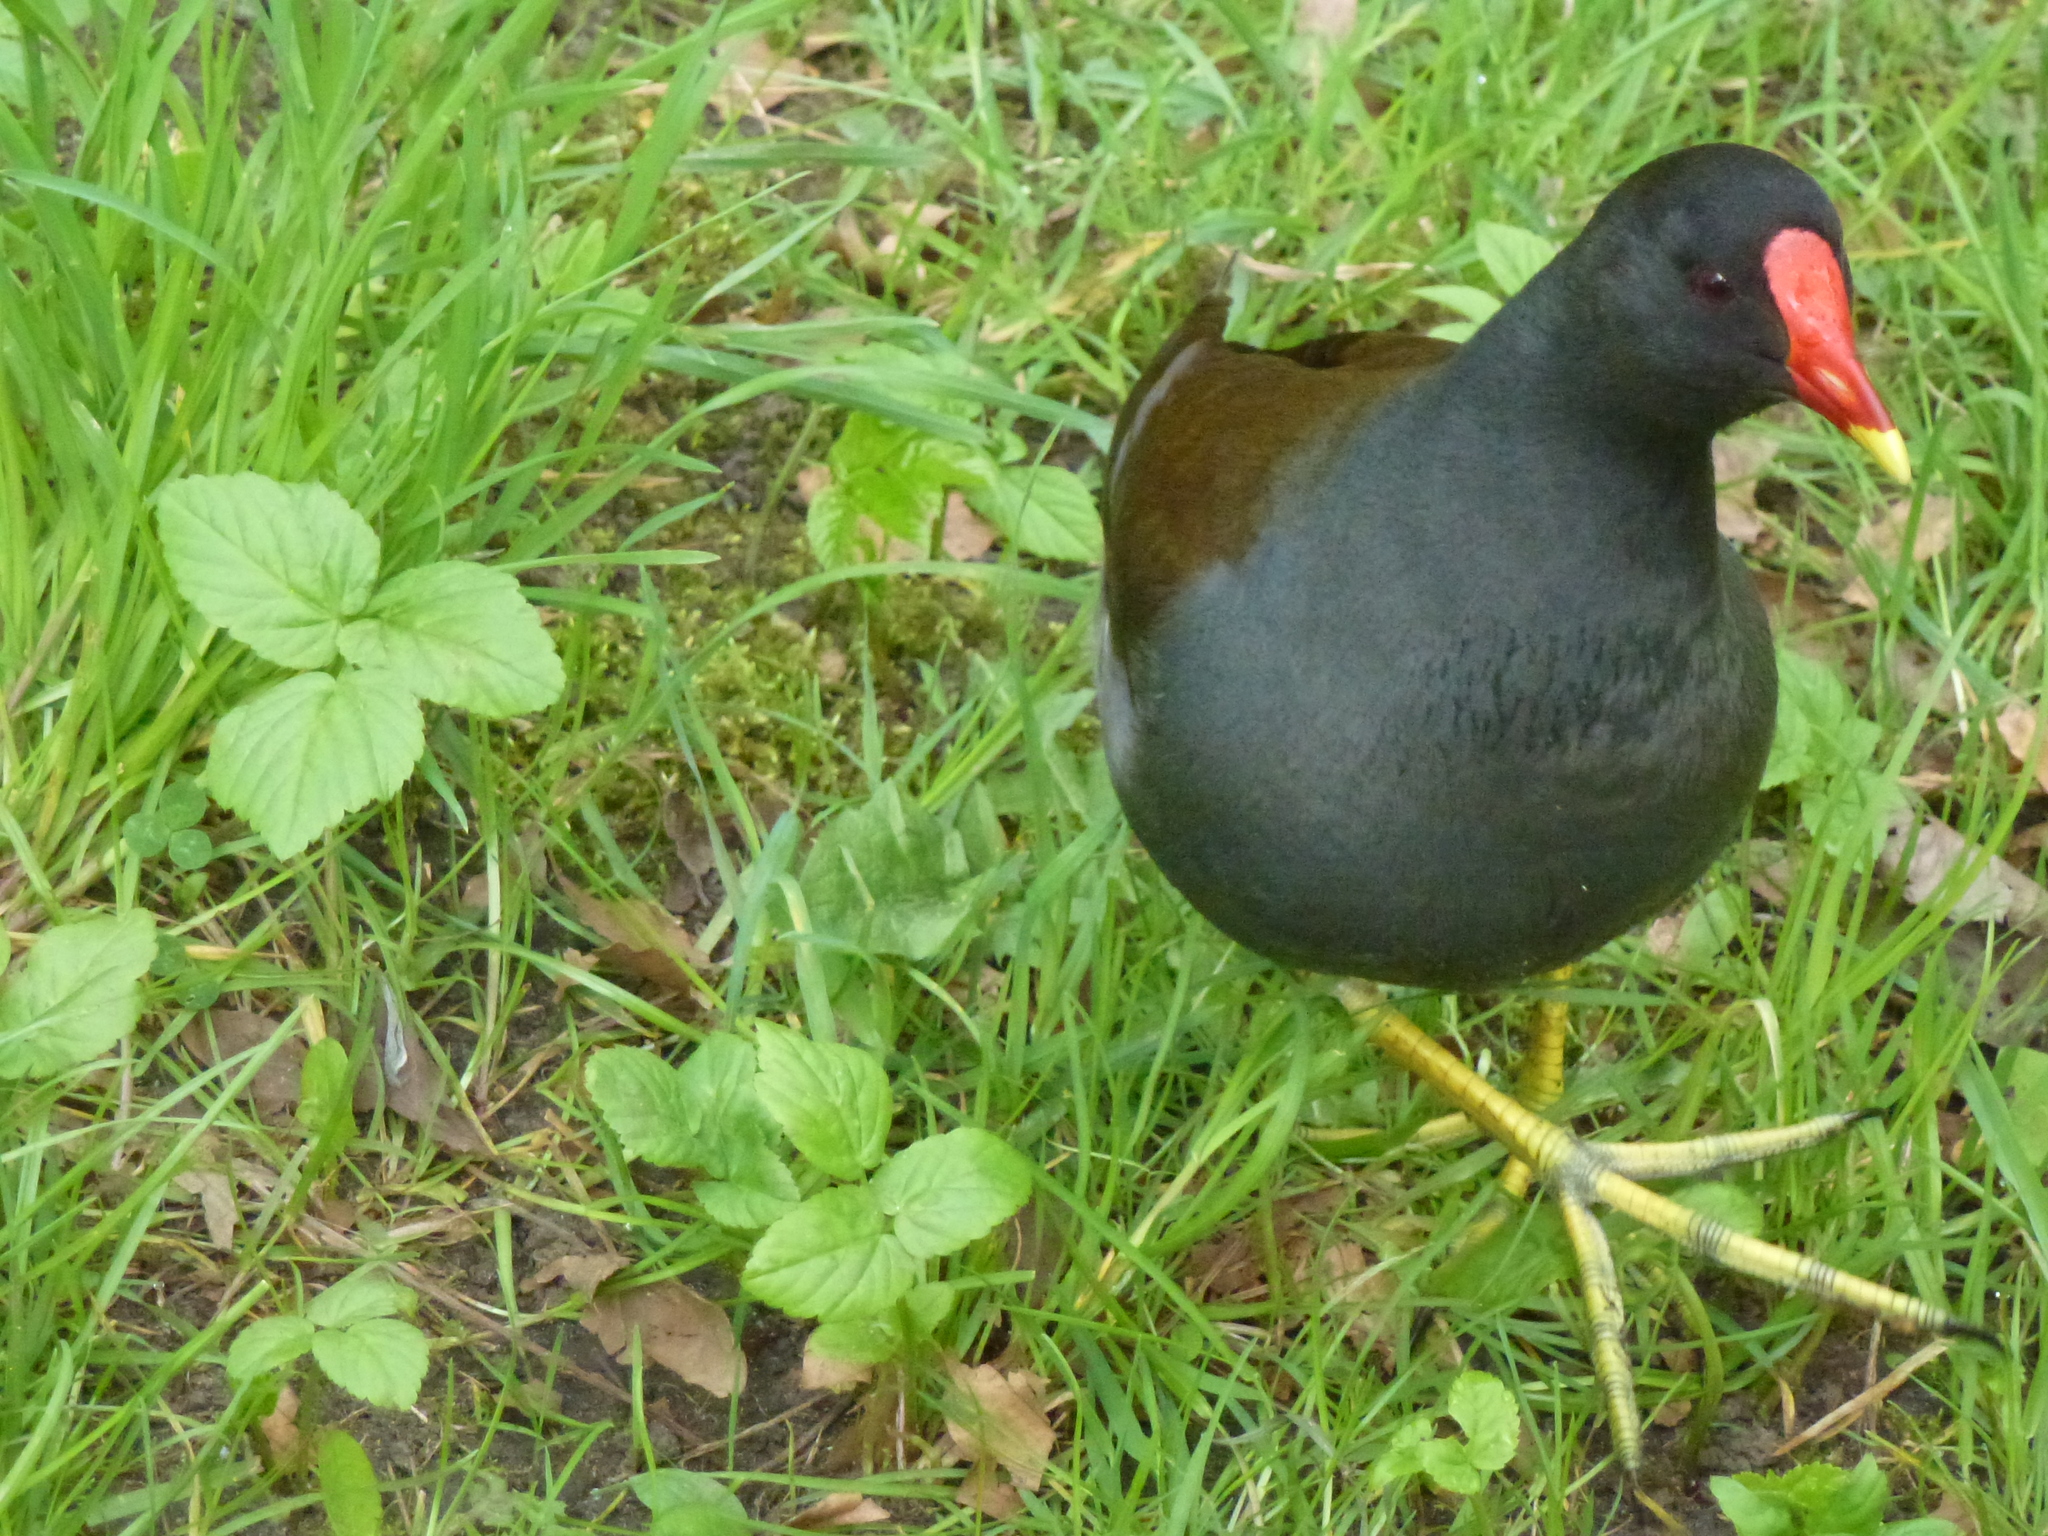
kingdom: Animalia
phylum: Chordata
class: Aves
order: Gruiformes
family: Rallidae
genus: Gallinula
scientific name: Gallinula chloropus
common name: Common moorhen
